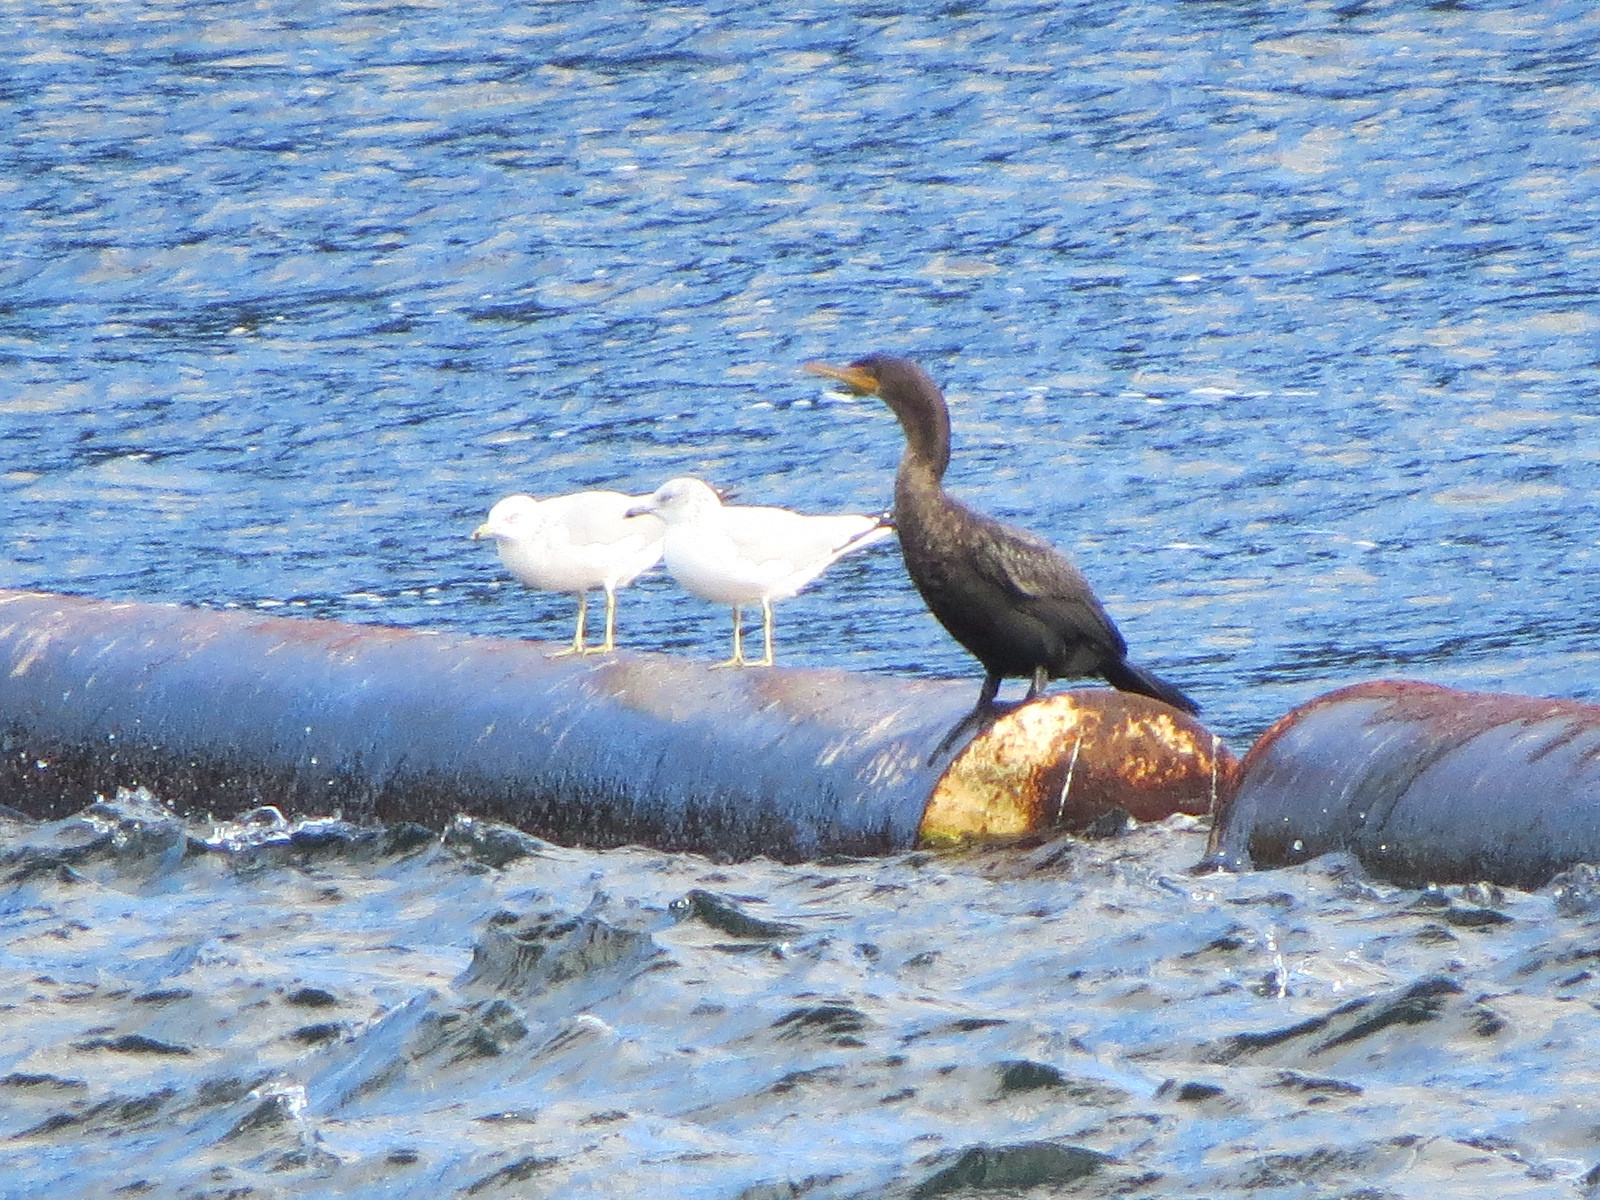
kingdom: Animalia
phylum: Chordata
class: Aves
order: Suliformes
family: Phalacrocoracidae
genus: Phalacrocorax
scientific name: Phalacrocorax auritus
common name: Double-crested cormorant
